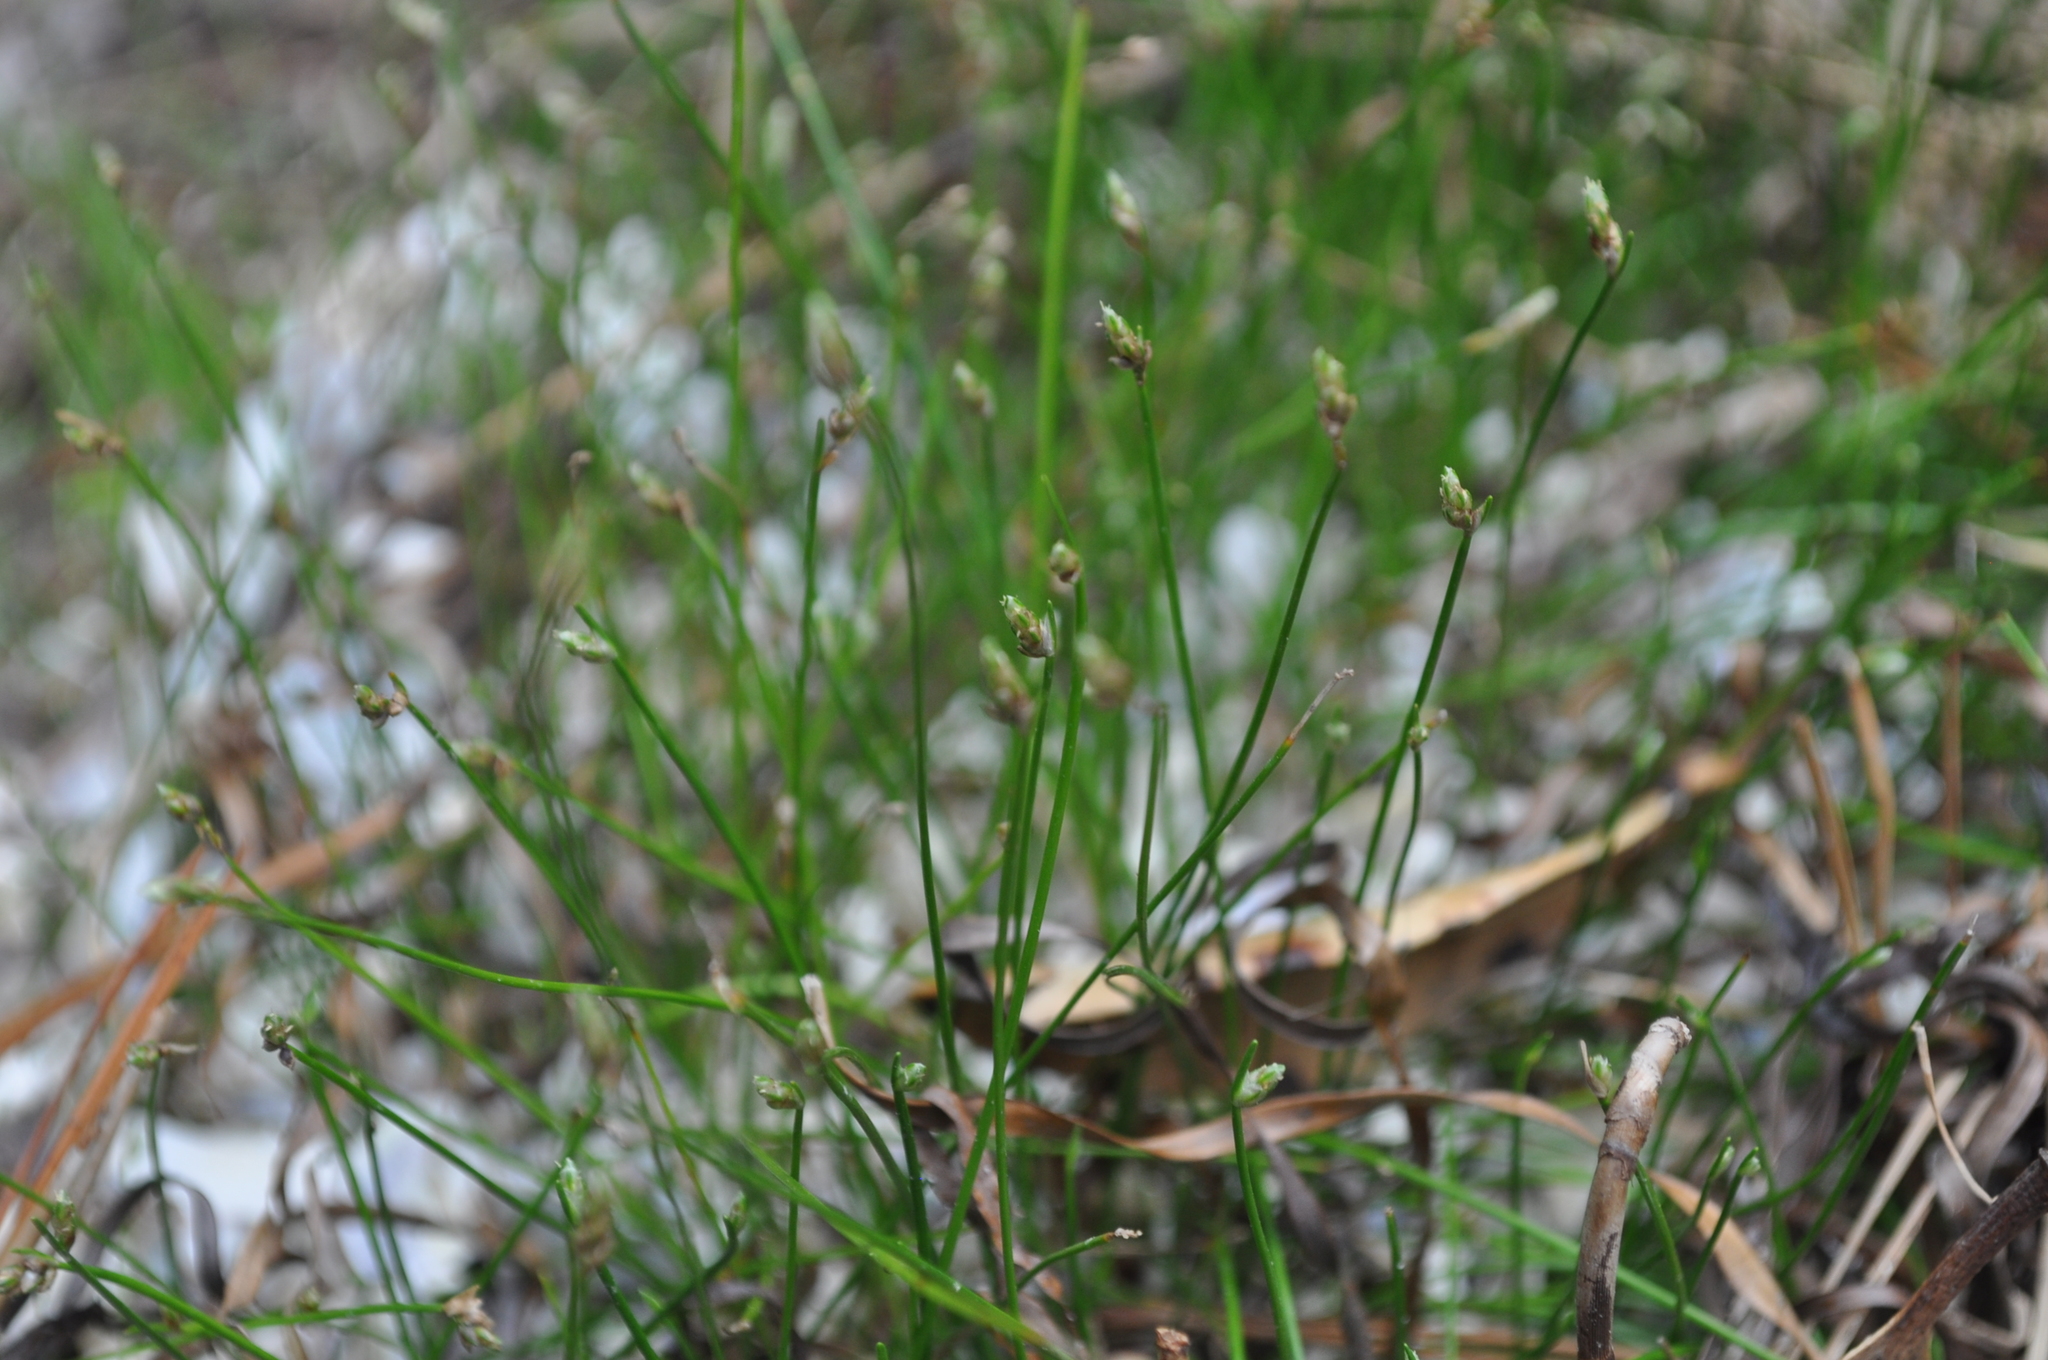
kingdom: Plantae
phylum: Tracheophyta
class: Liliopsida
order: Poales
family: Cyperaceae
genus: Isolepis
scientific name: Isolepis cernua
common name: Slender club-rush
